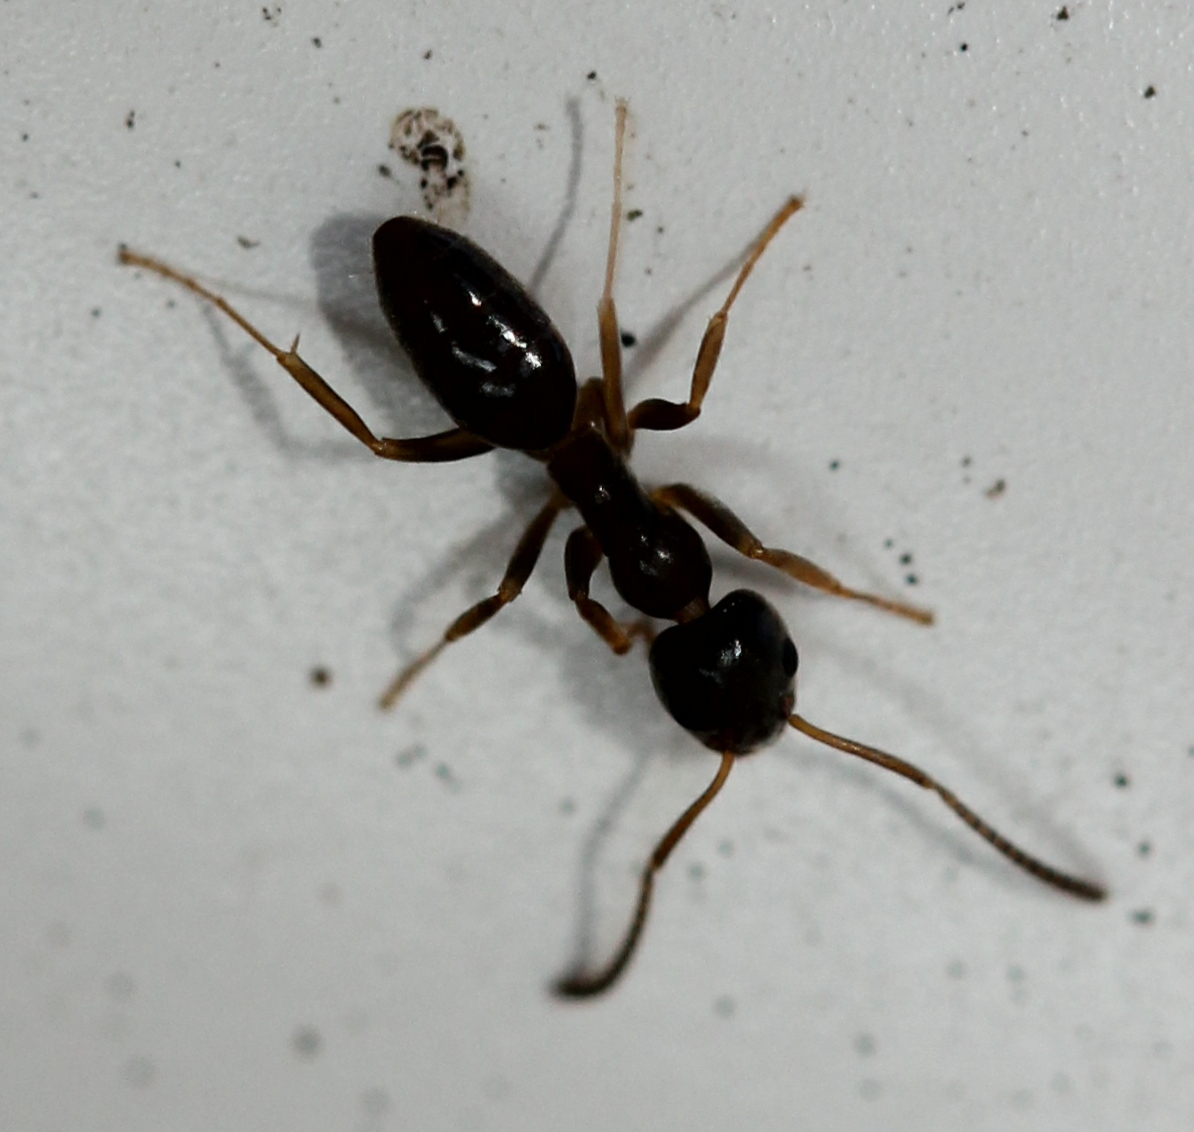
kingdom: Animalia
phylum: Arthropoda
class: Insecta
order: Hymenoptera
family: Formicidae
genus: Tapinoma
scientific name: Tapinoma sessile
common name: Odorous house ant
